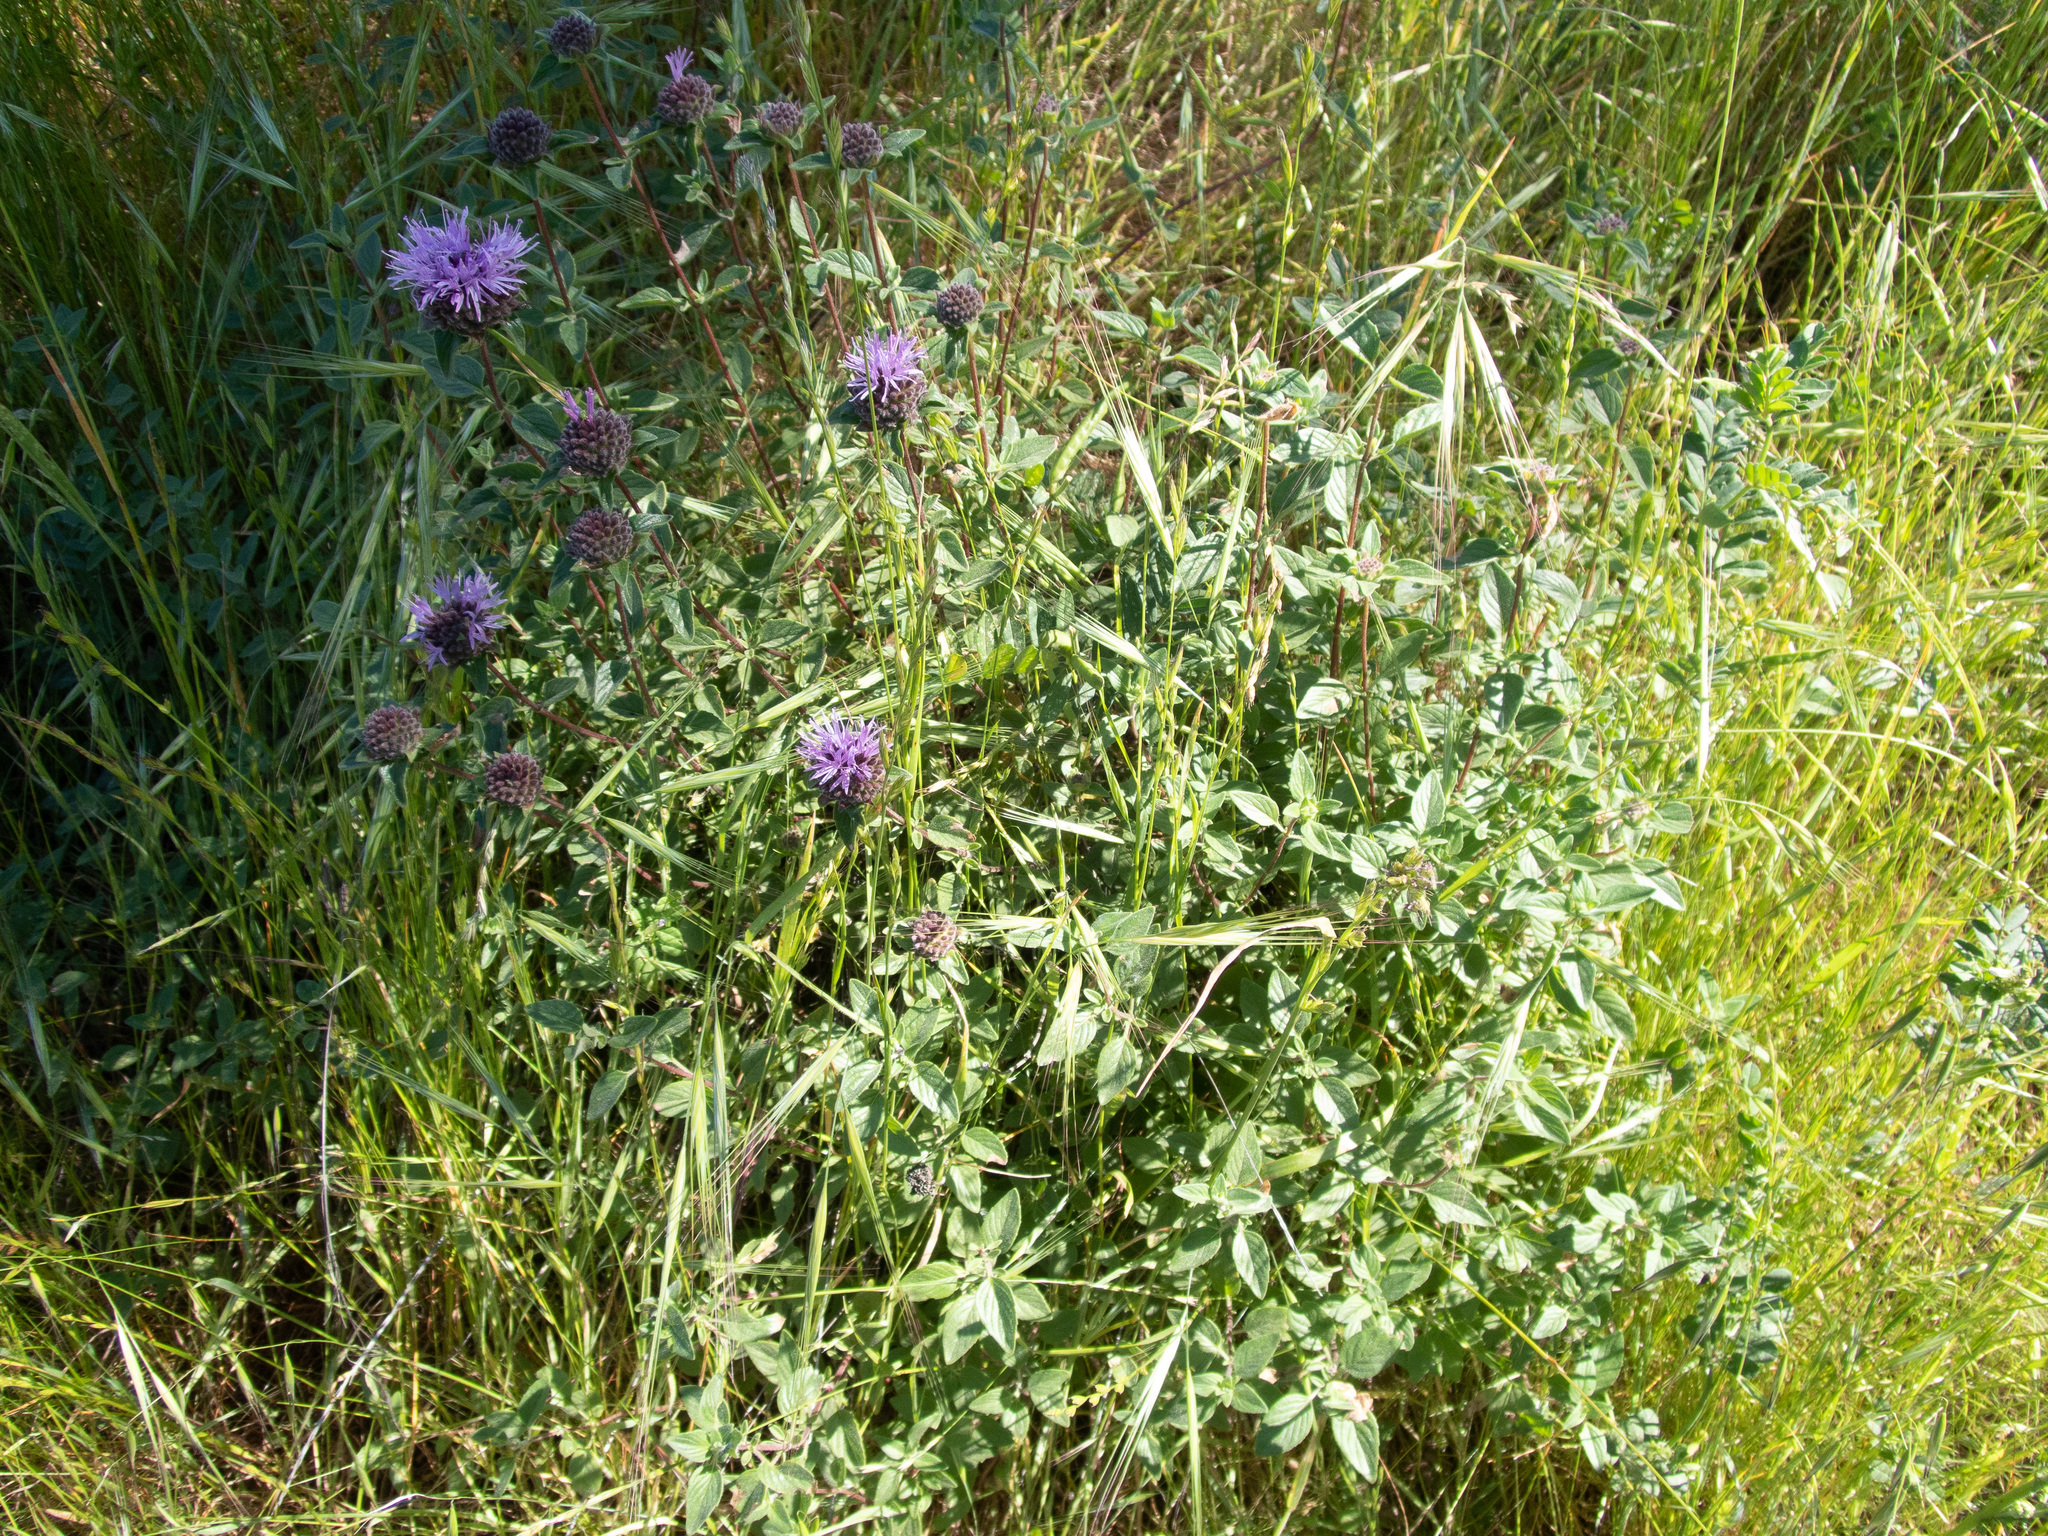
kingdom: Plantae
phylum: Tracheophyta
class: Magnoliopsida
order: Lamiales
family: Lamiaceae
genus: Monardella
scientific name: Monardella odoratissima
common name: Pacific monardella
